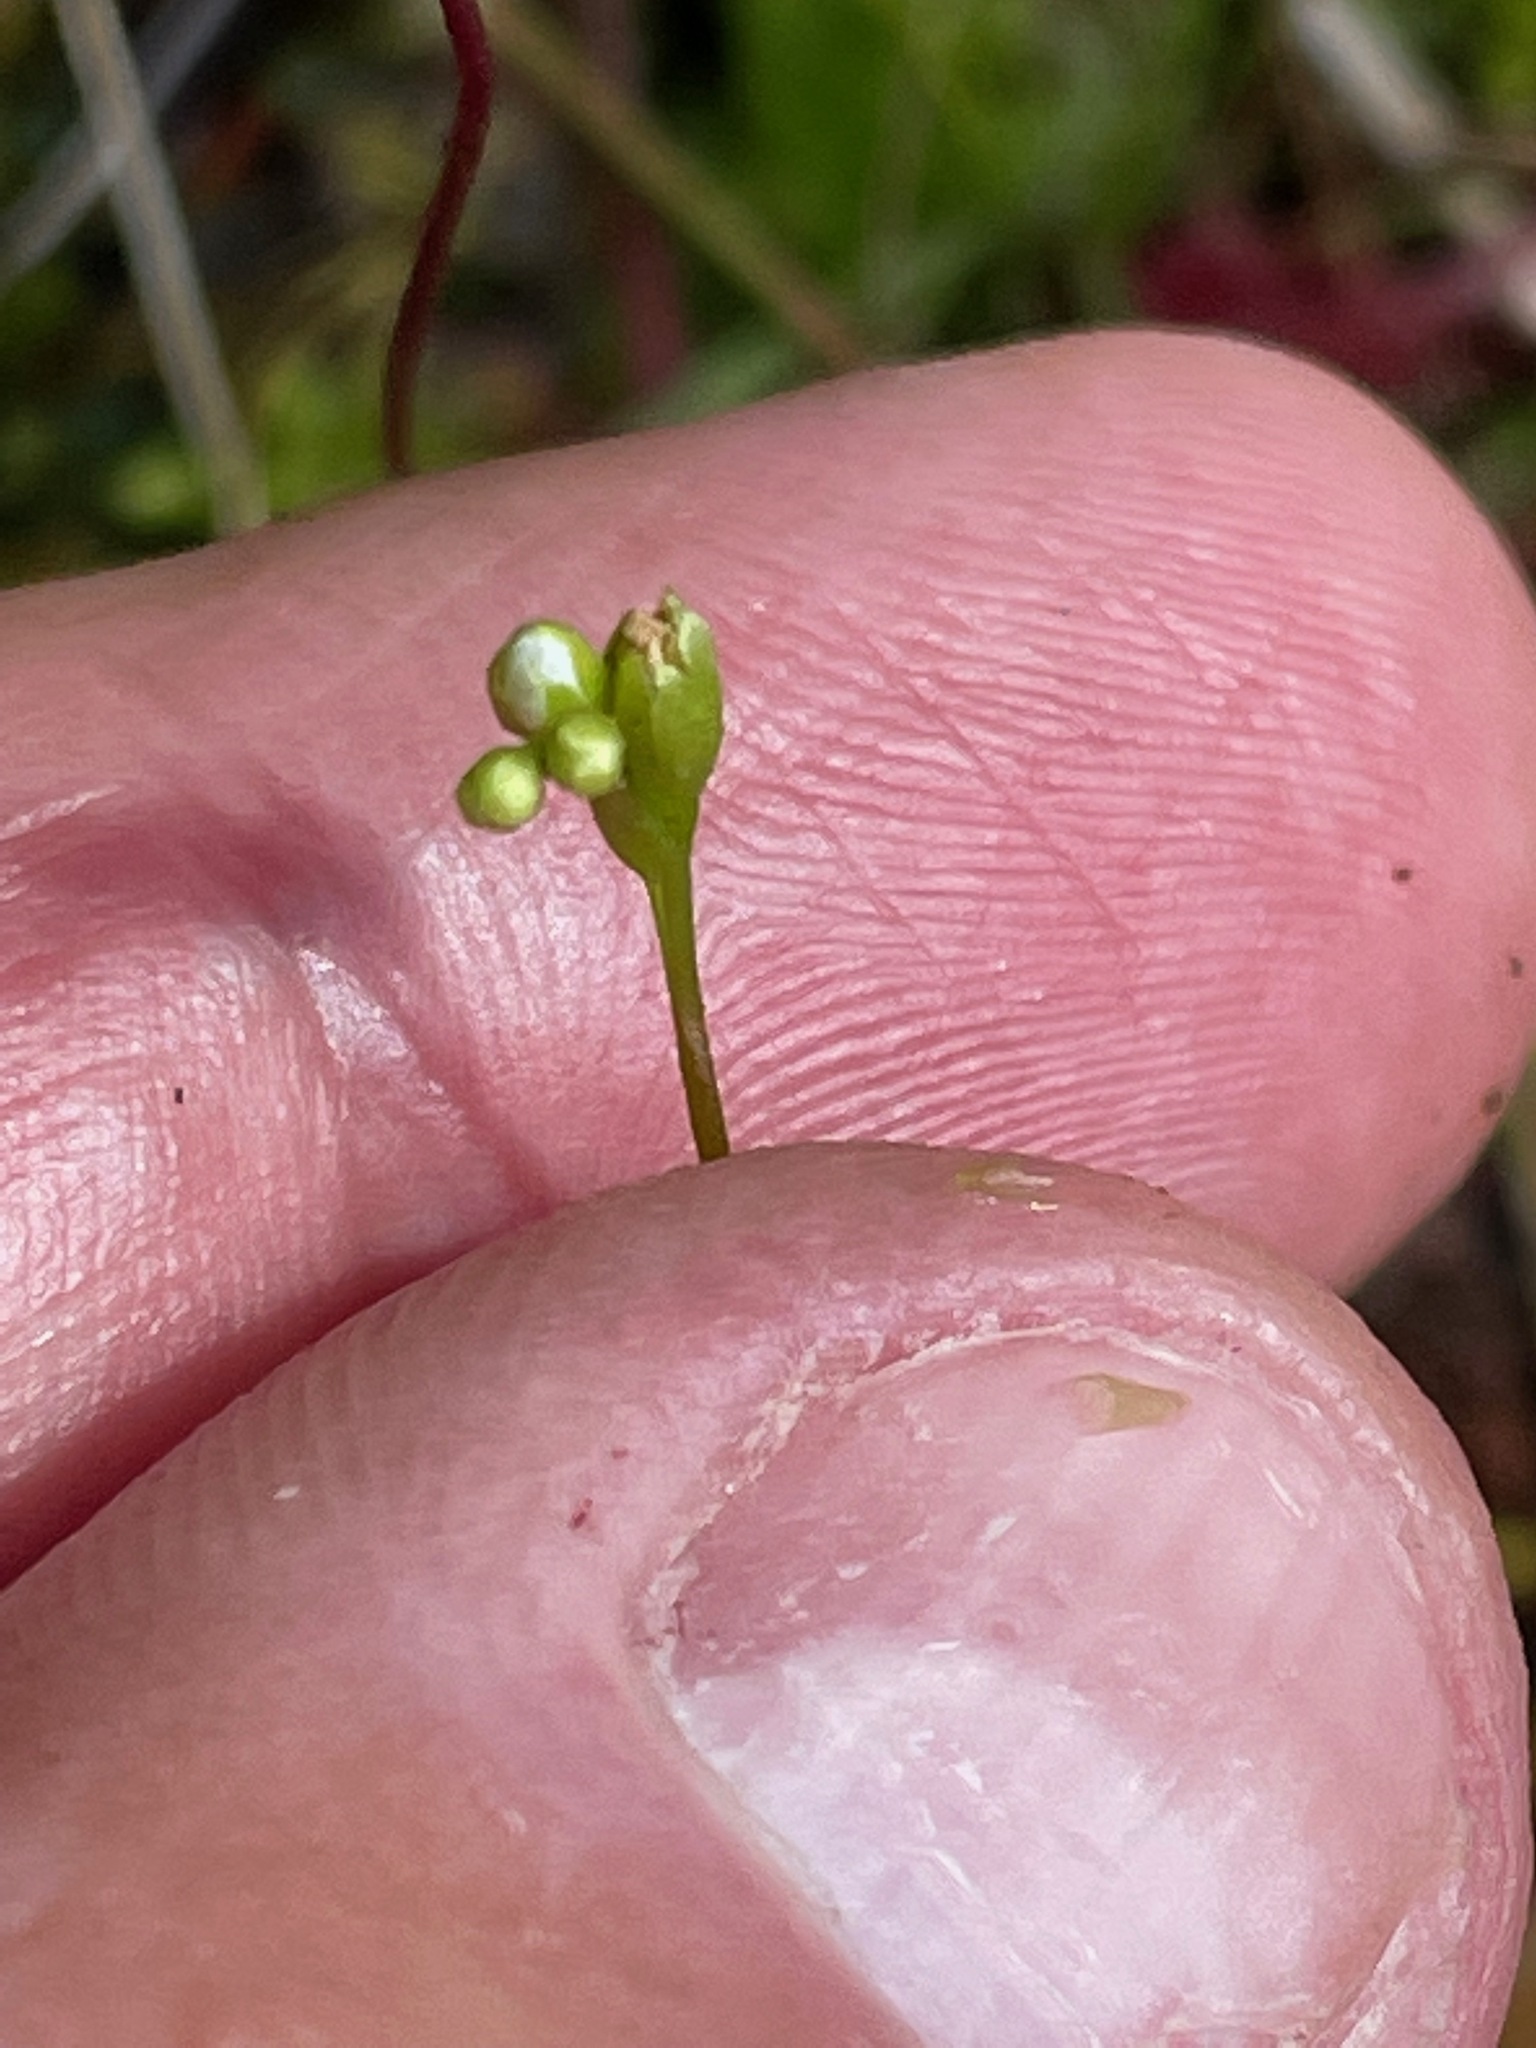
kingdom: Plantae
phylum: Tracheophyta
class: Magnoliopsida
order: Caryophyllales
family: Droseraceae
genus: Drosera
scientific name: Drosera rotundifolia
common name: Round-leaved sundew
